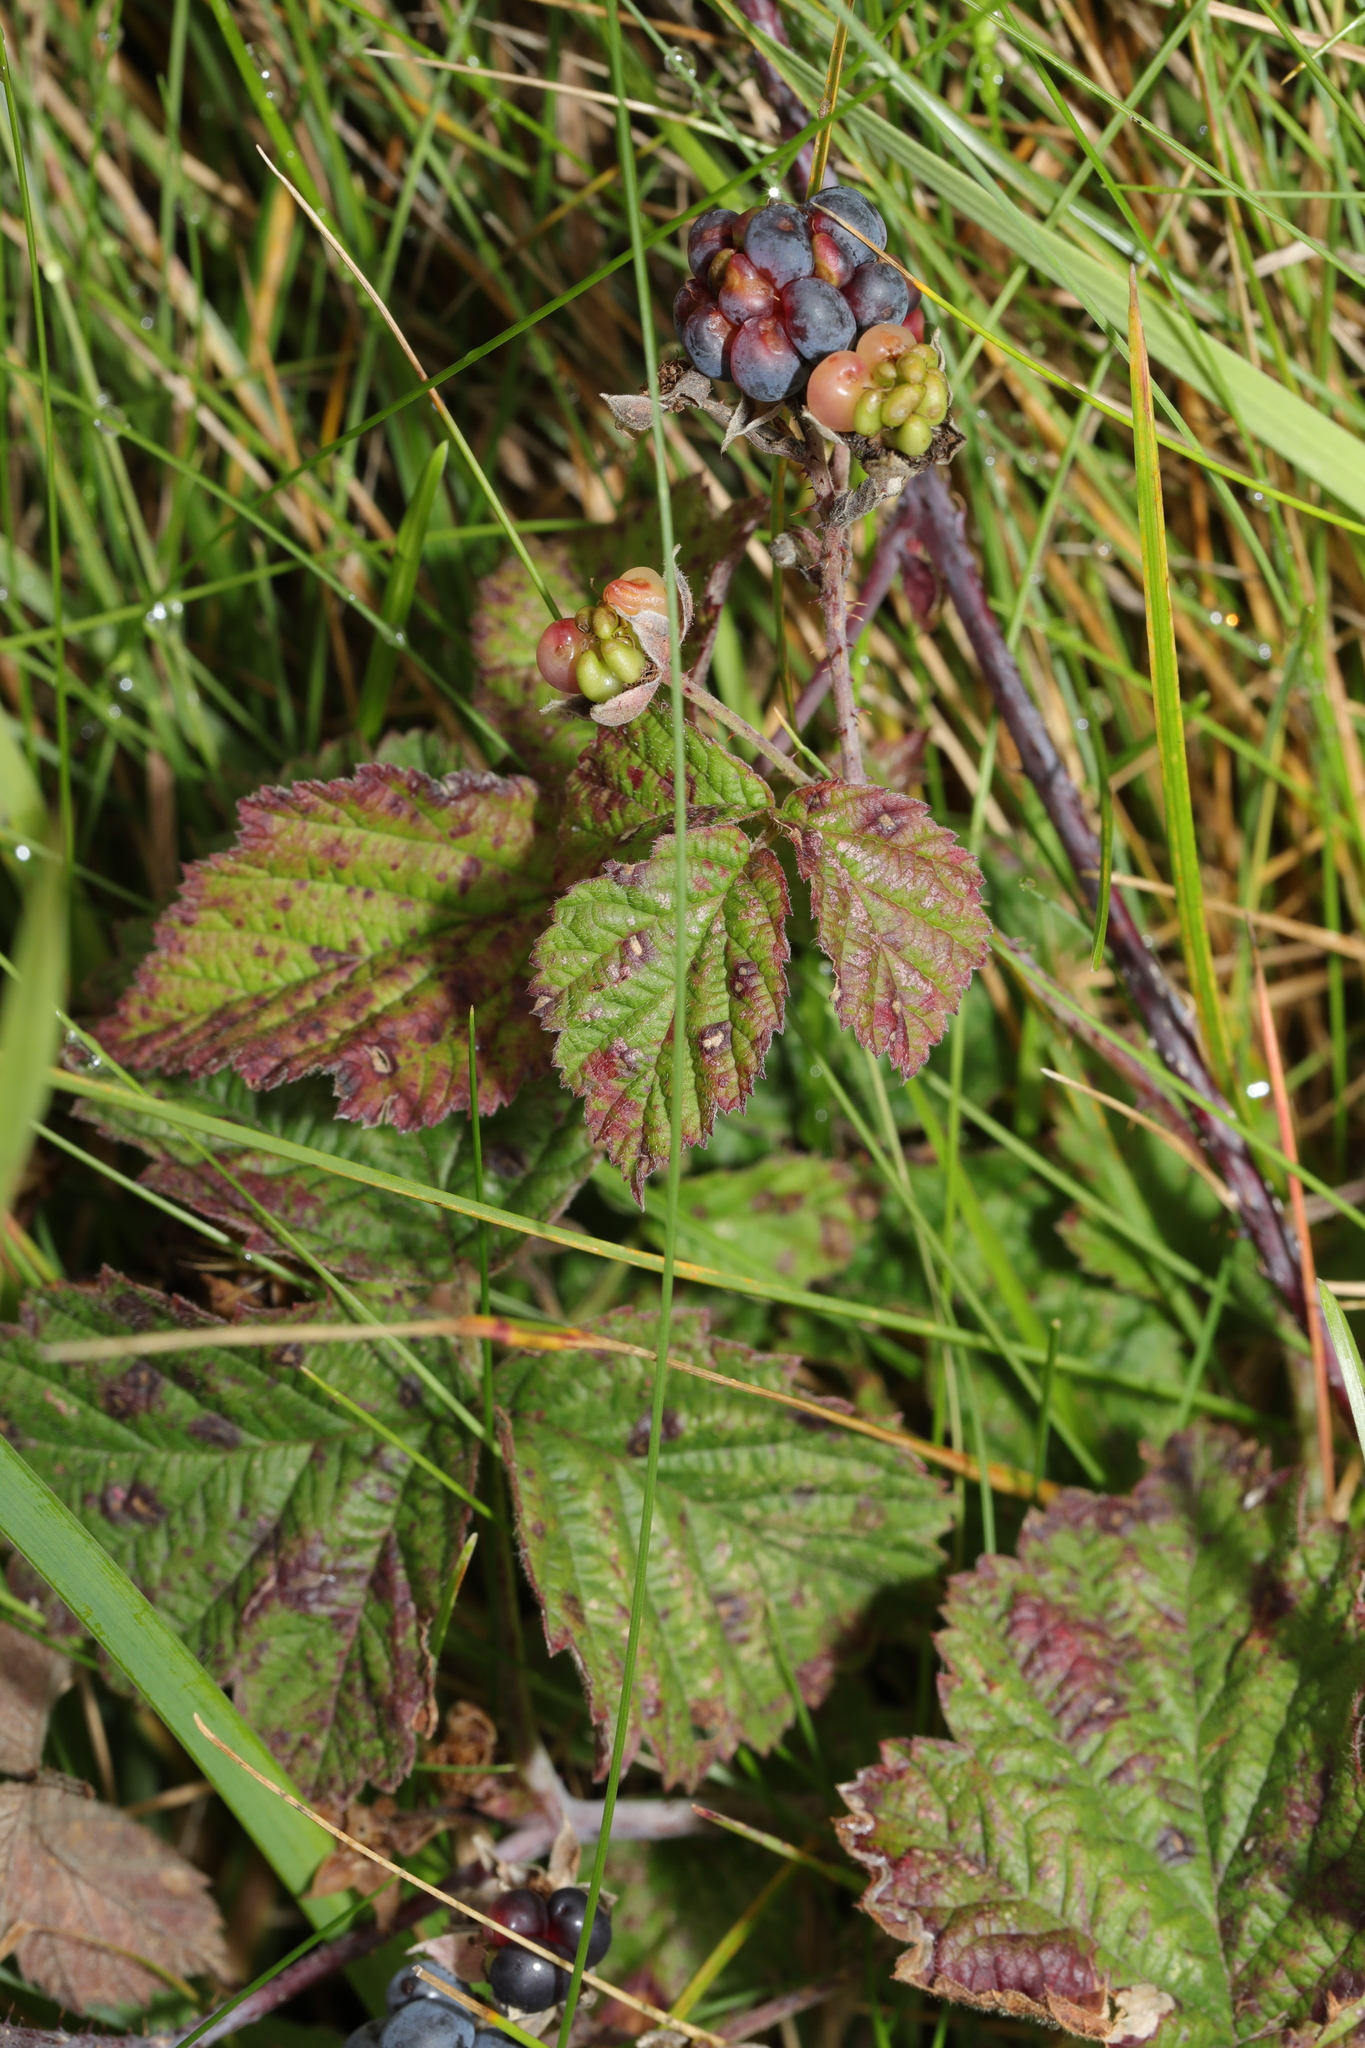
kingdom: Plantae
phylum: Tracheophyta
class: Magnoliopsida
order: Rosales
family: Rosaceae
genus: Rubus
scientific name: Rubus caesius
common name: Dewberry
